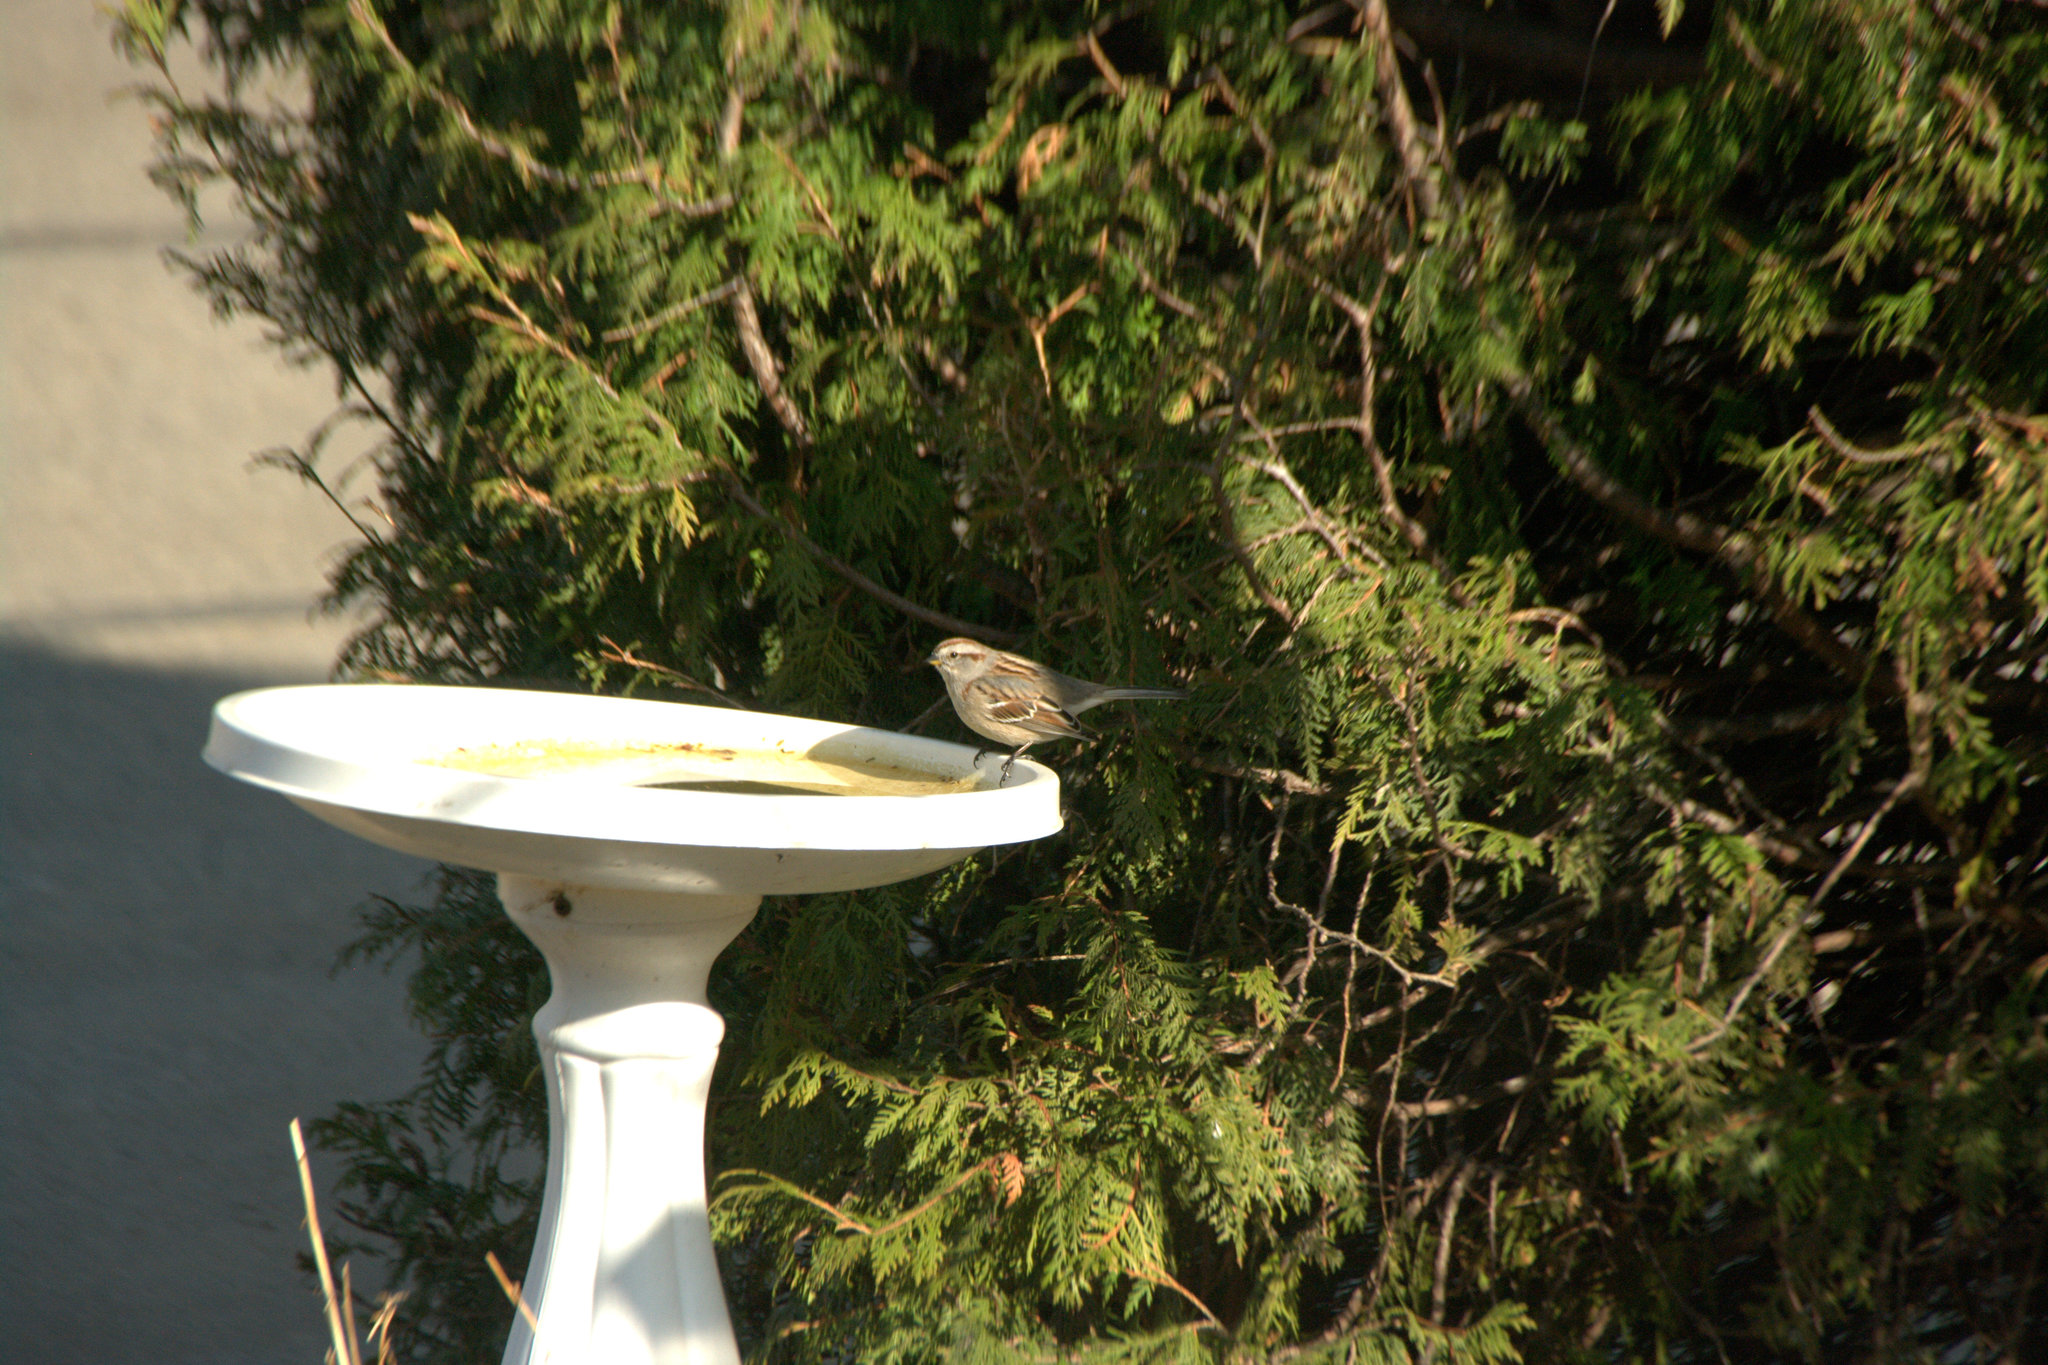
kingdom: Animalia
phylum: Chordata
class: Aves
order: Passeriformes
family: Passerellidae
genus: Spizelloides
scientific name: Spizelloides arborea
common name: American tree sparrow
